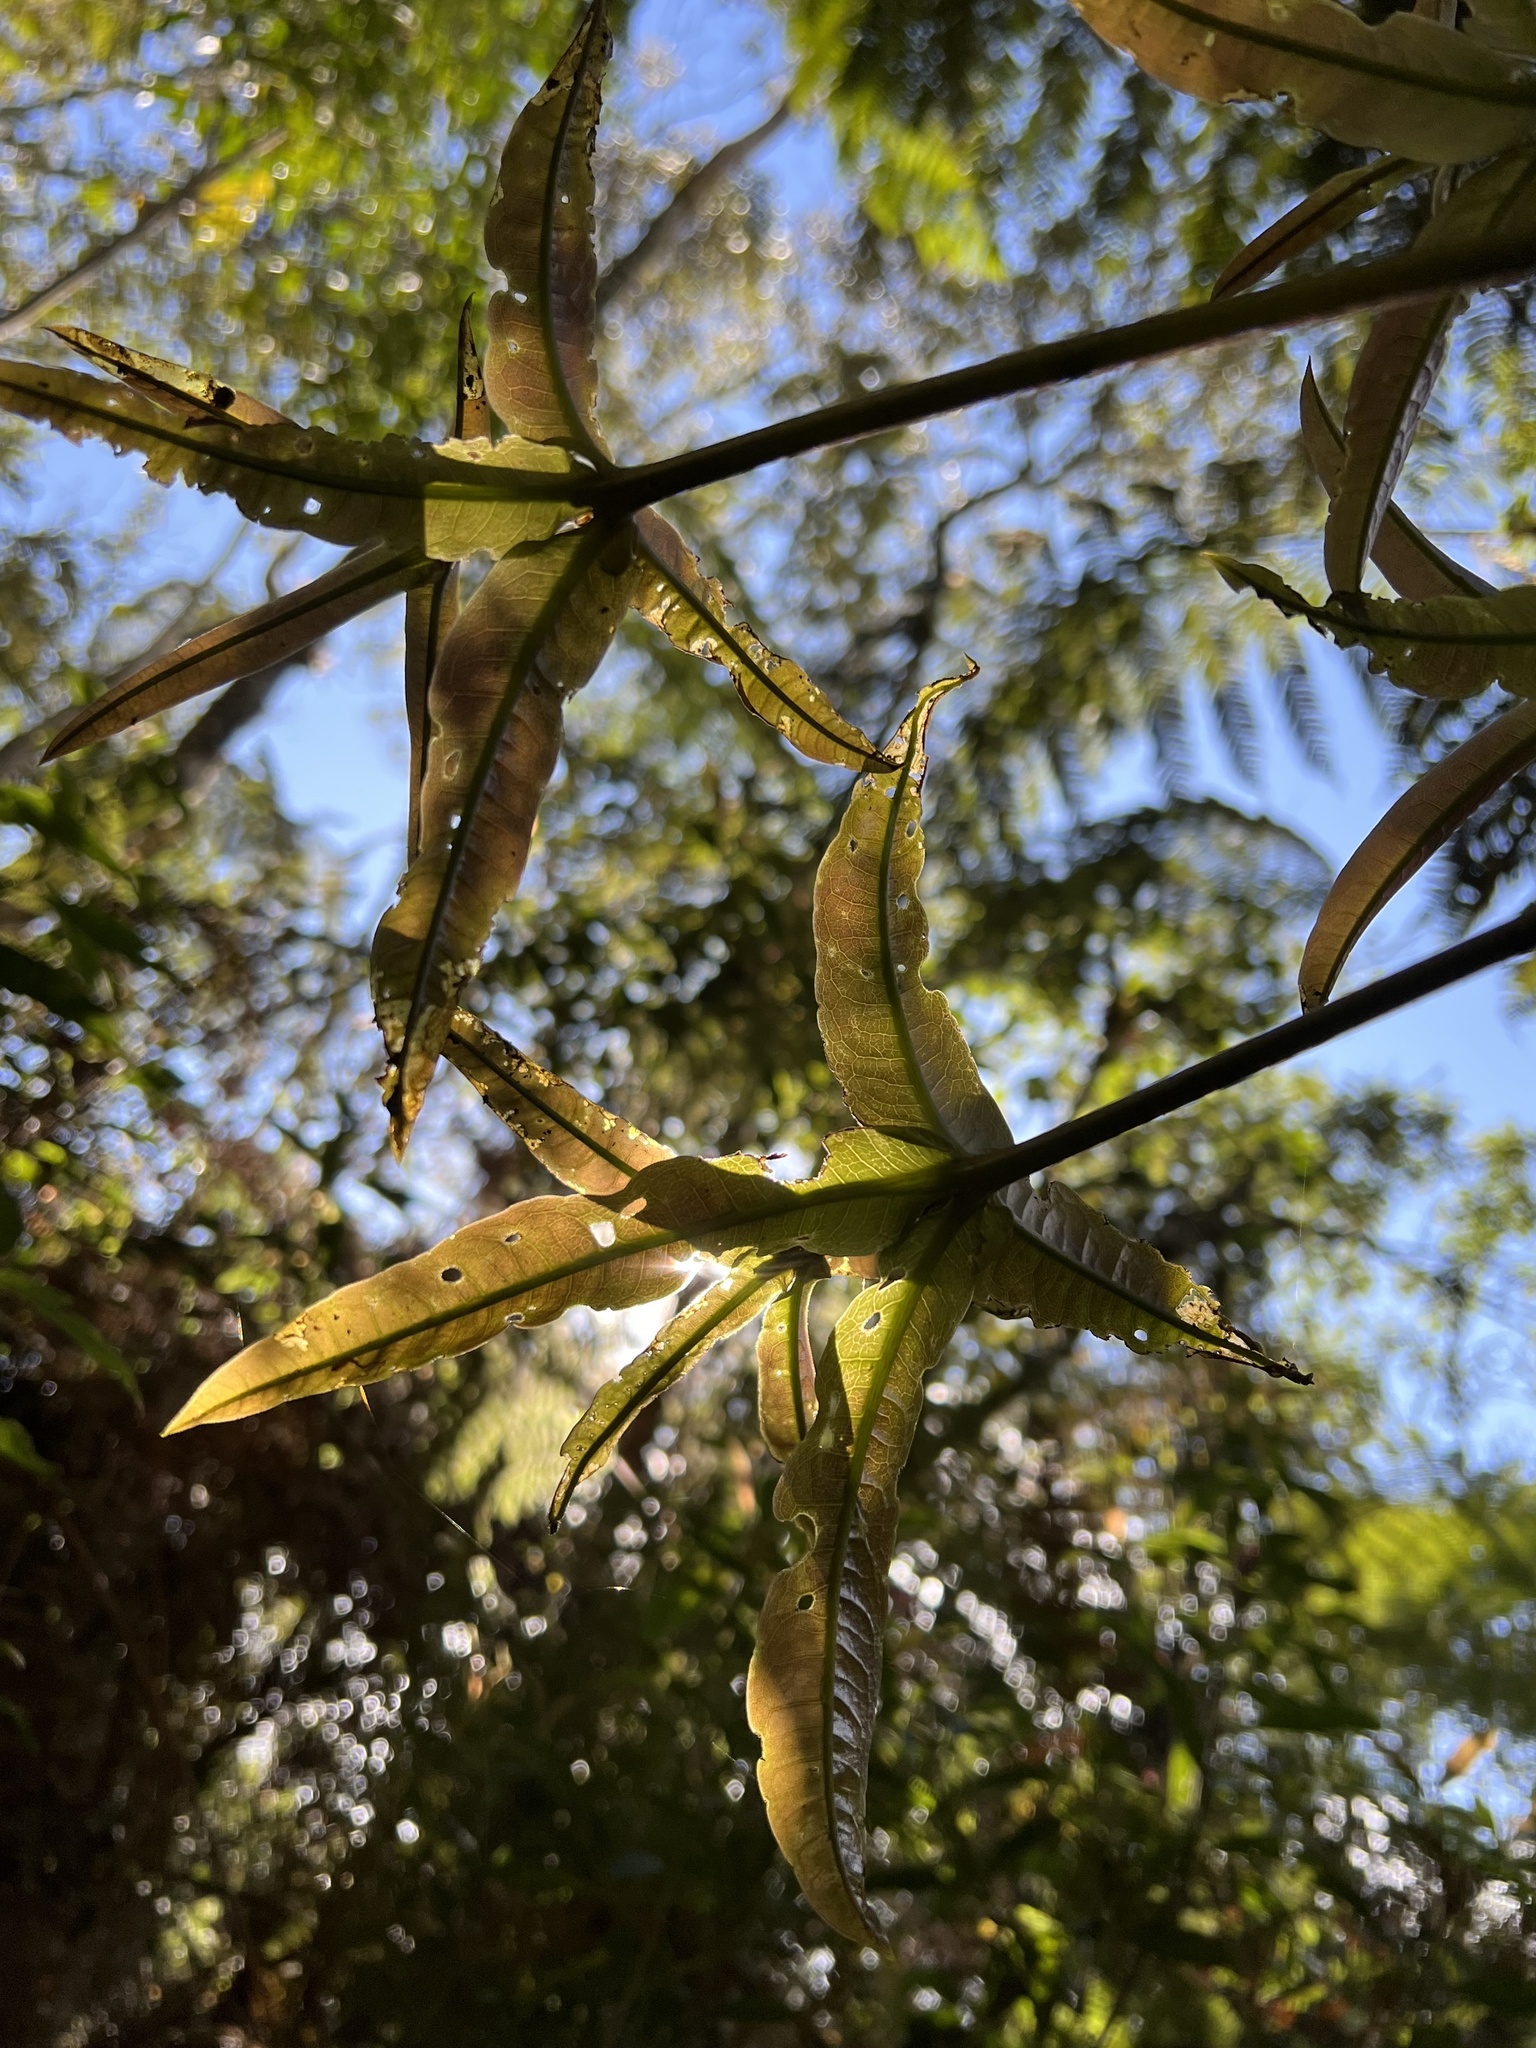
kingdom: Plantae
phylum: Tracheophyta
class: Magnoliopsida
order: Proteales
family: Proteaceae
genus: Panopsis
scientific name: Panopsis suaveolens
